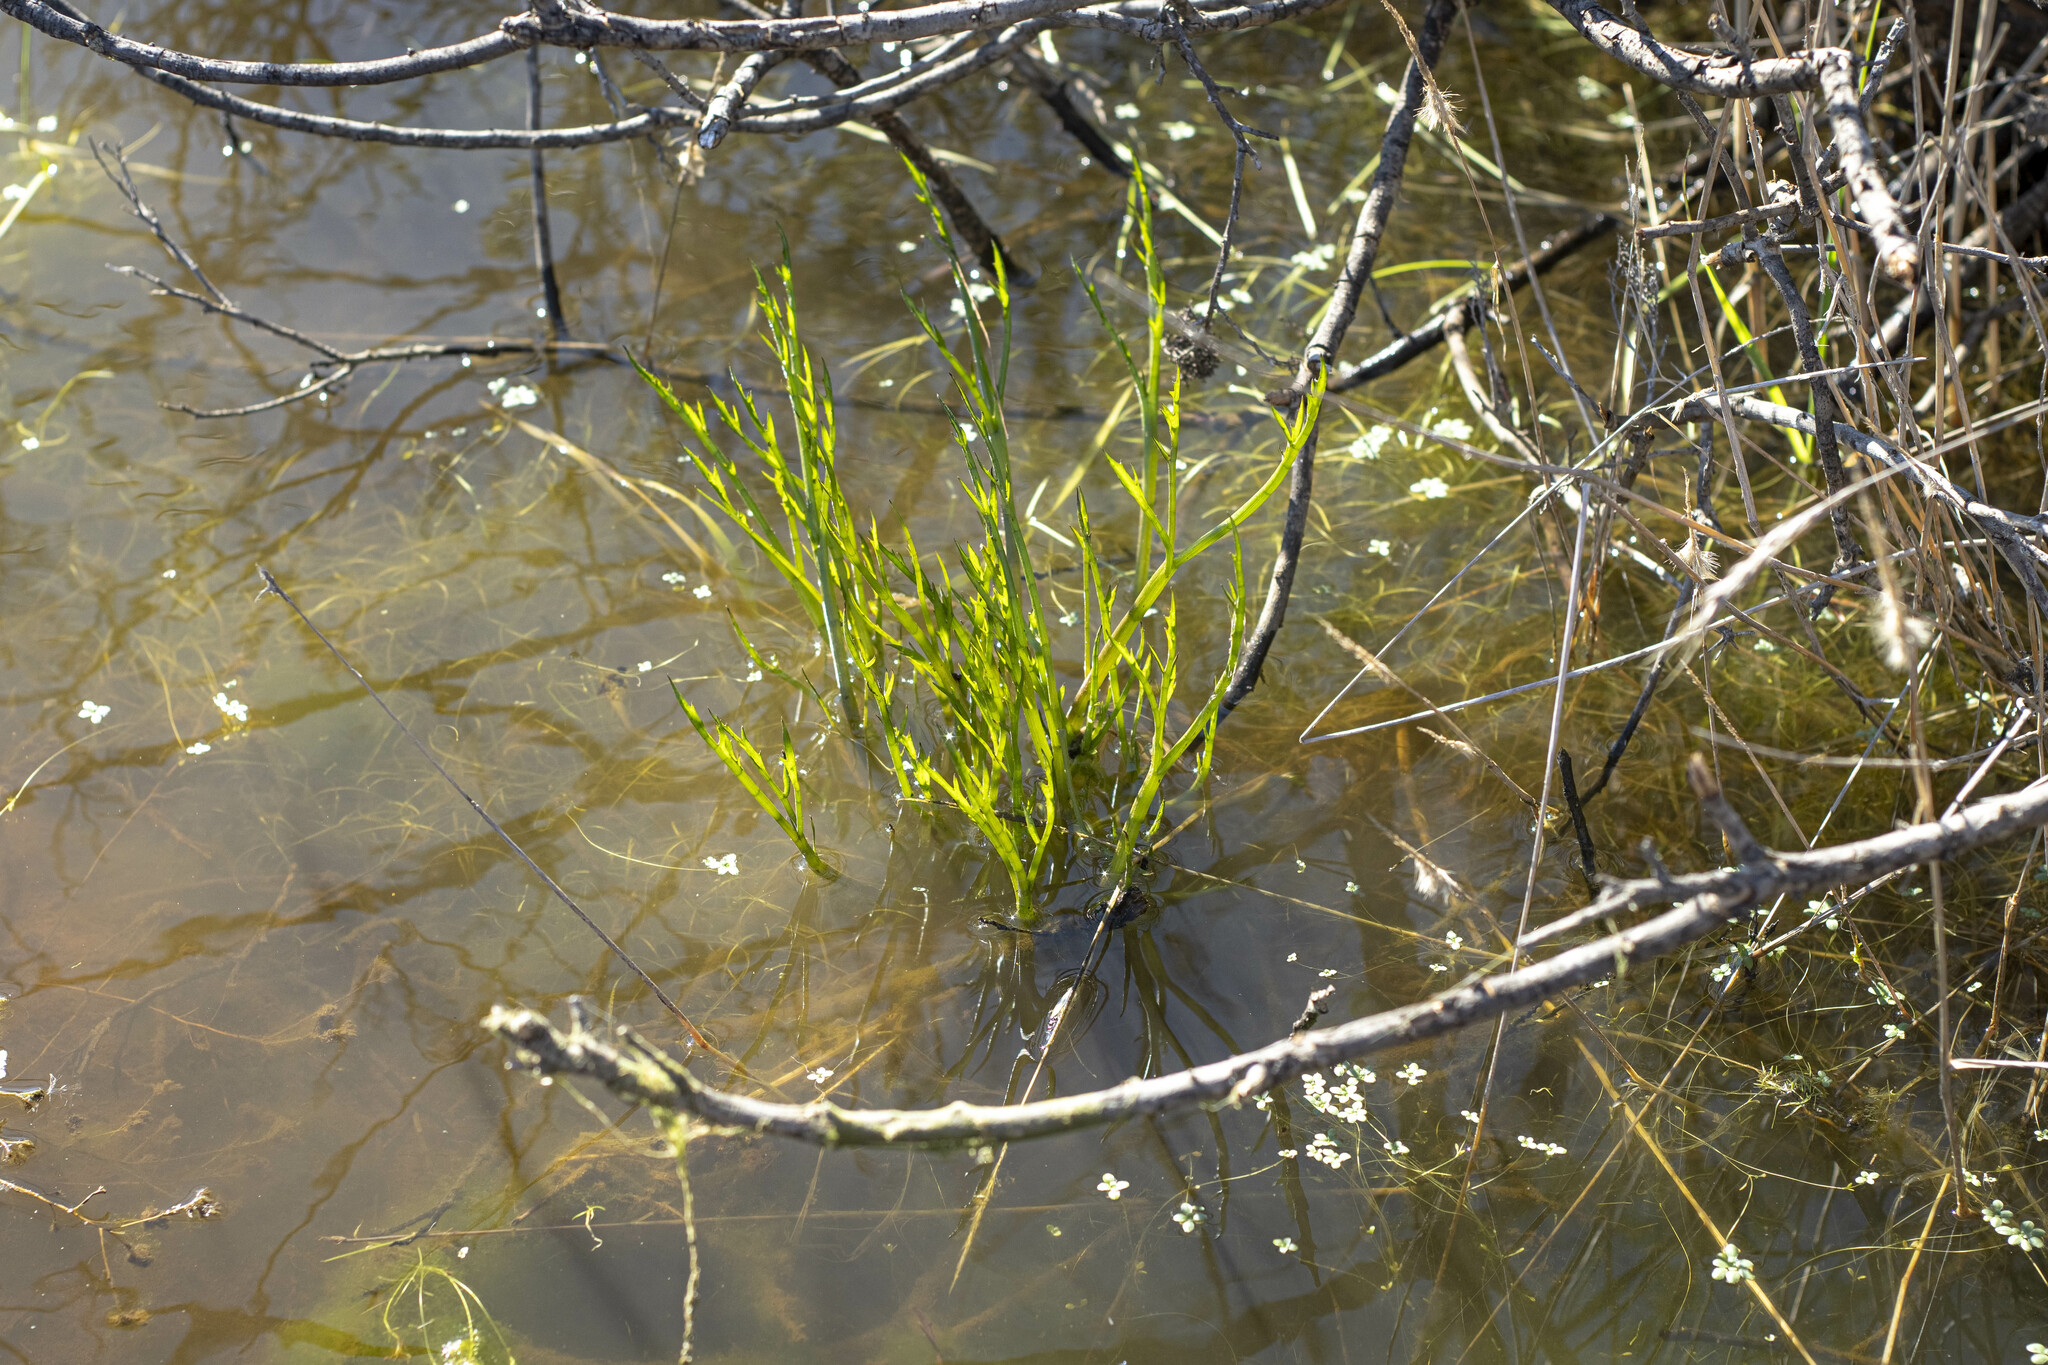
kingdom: Plantae
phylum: Tracheophyta
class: Magnoliopsida
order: Apiales
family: Apiaceae
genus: Eryngium
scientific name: Eryngium aristulatum
